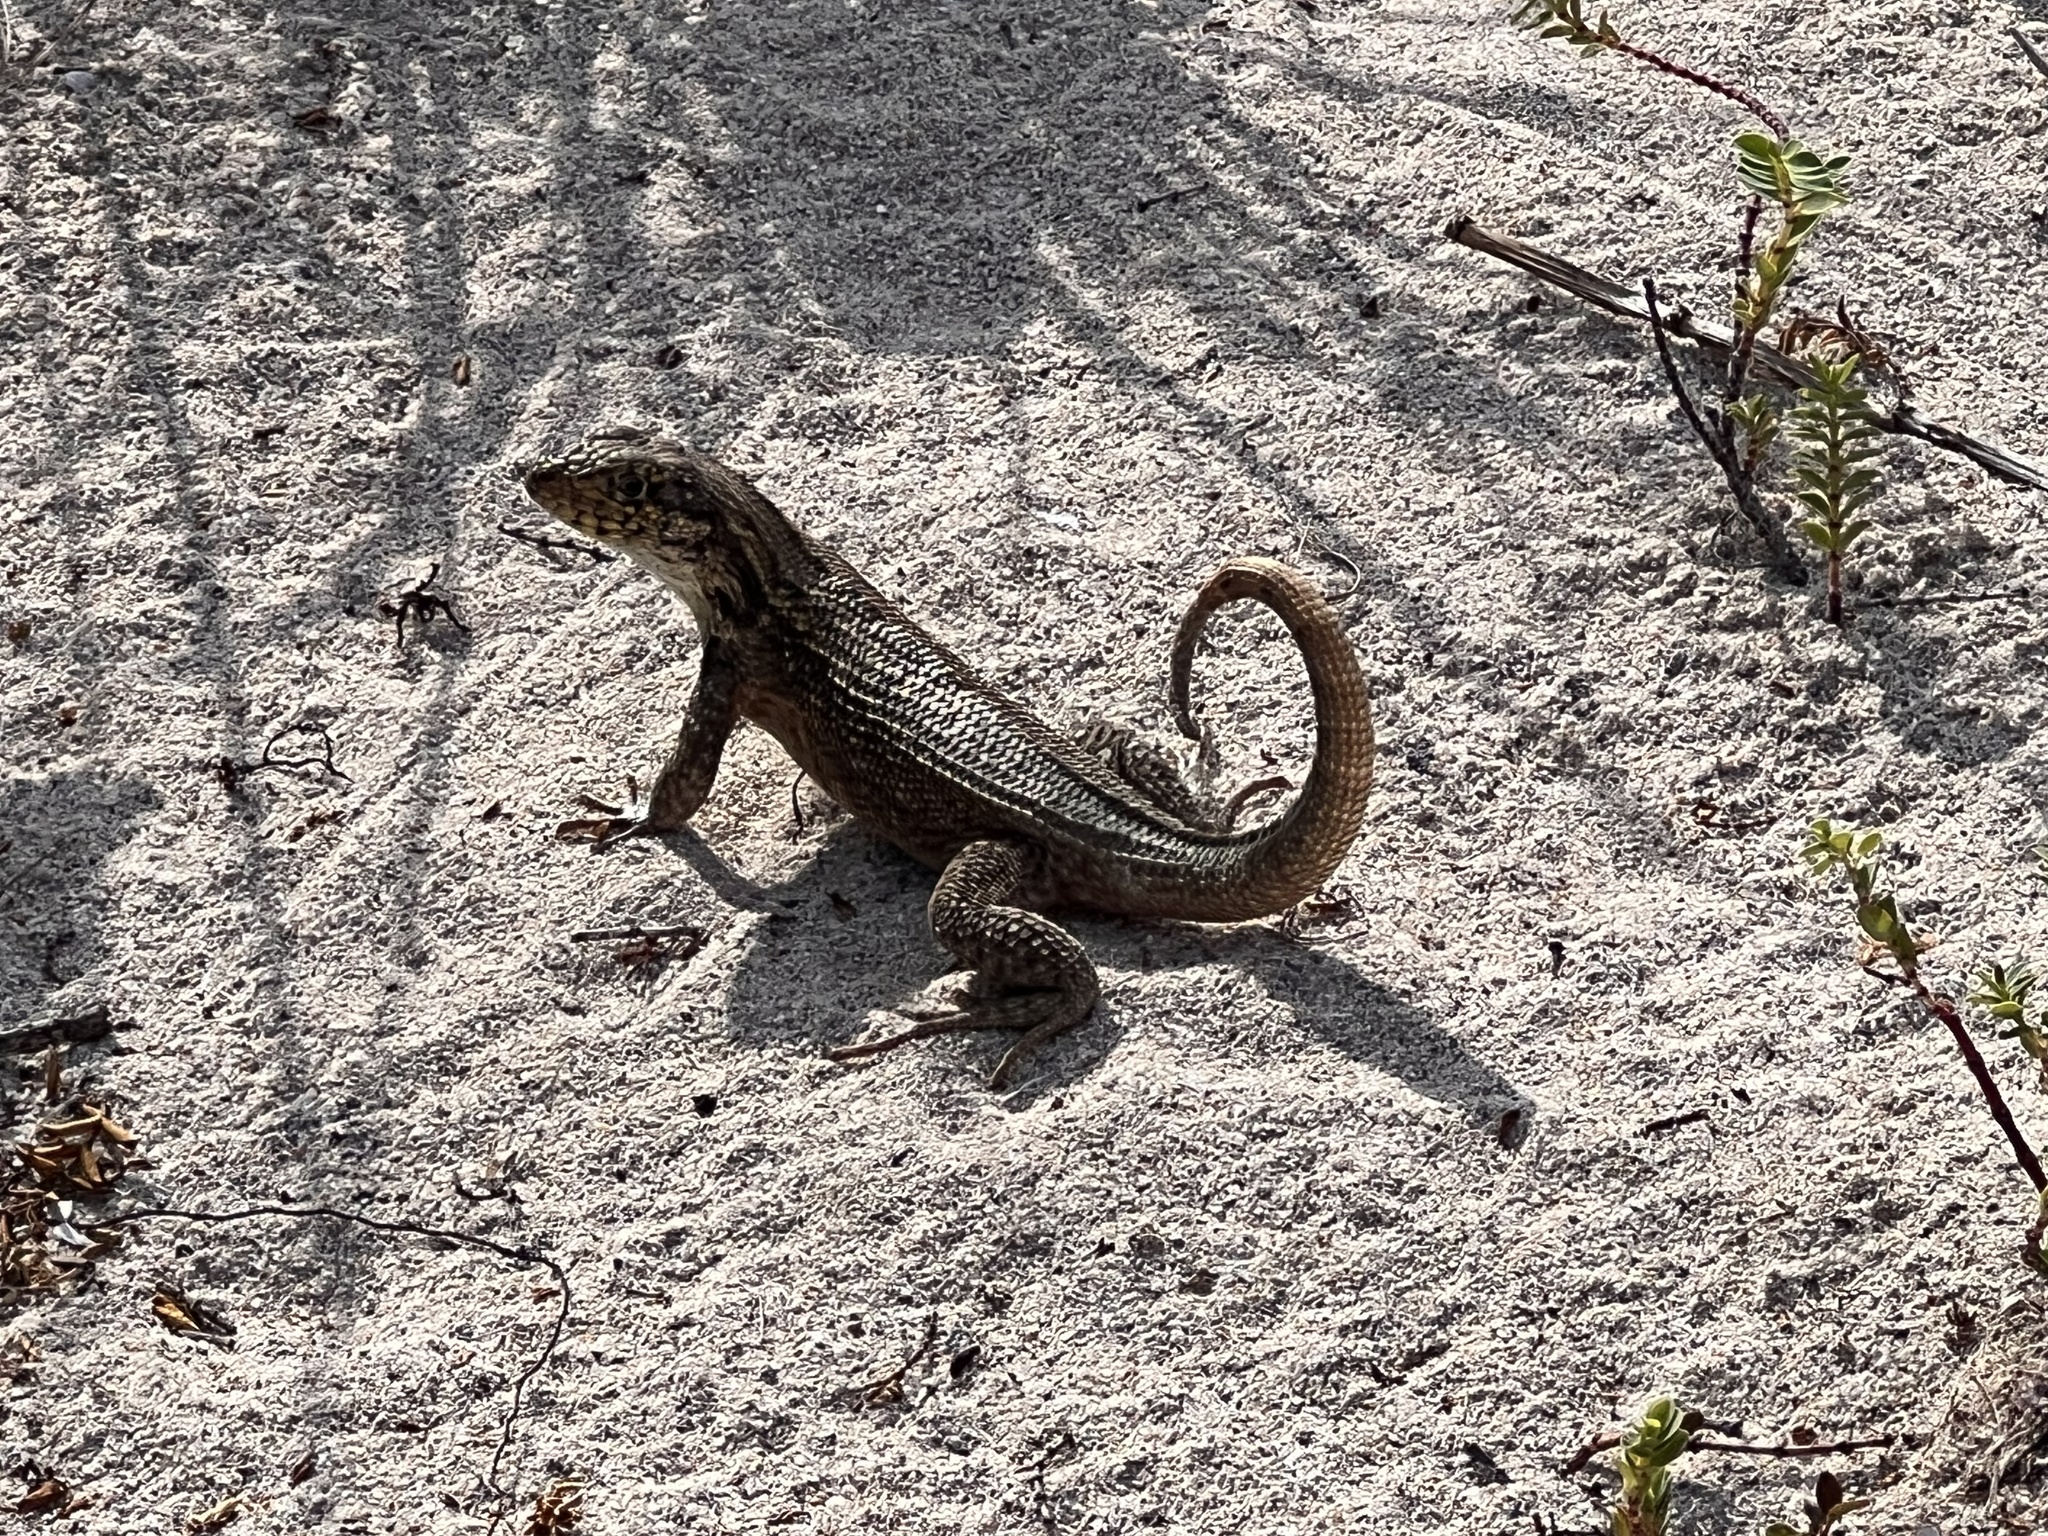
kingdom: Animalia
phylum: Chordata
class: Squamata
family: Leiocephalidae
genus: Leiocephalus
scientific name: Leiocephalus carinatus
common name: Northern curly-tailed lizard
